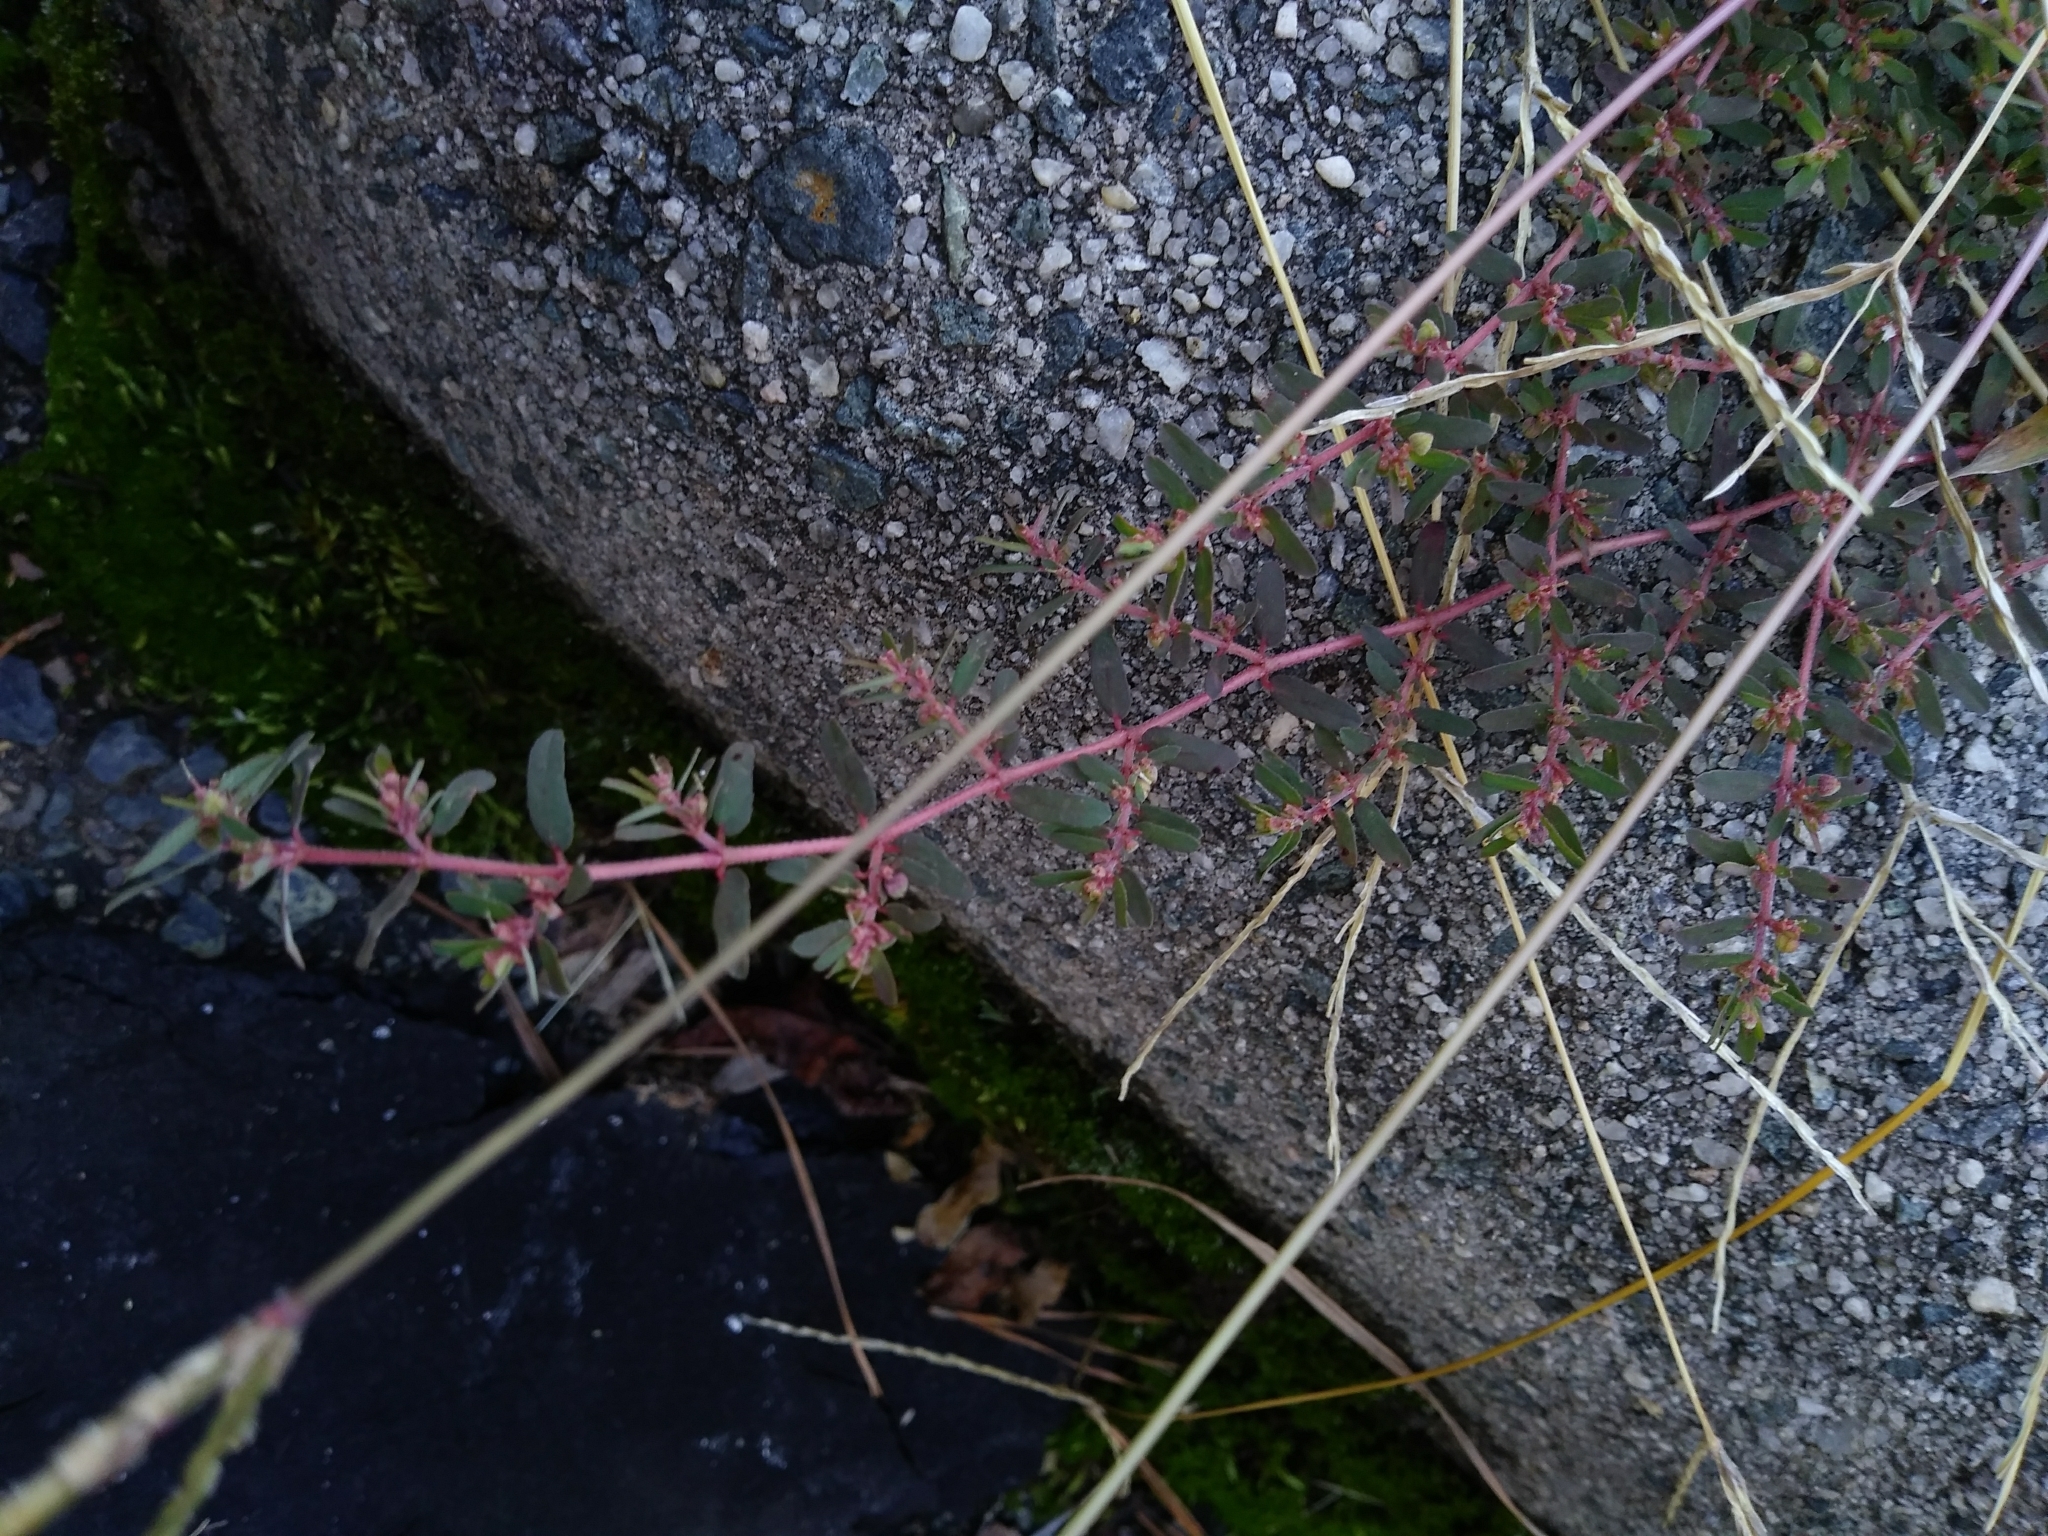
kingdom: Plantae
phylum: Tracheophyta
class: Magnoliopsida
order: Malpighiales
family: Euphorbiaceae
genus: Euphorbia
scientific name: Euphorbia maculata
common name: Spotted spurge
